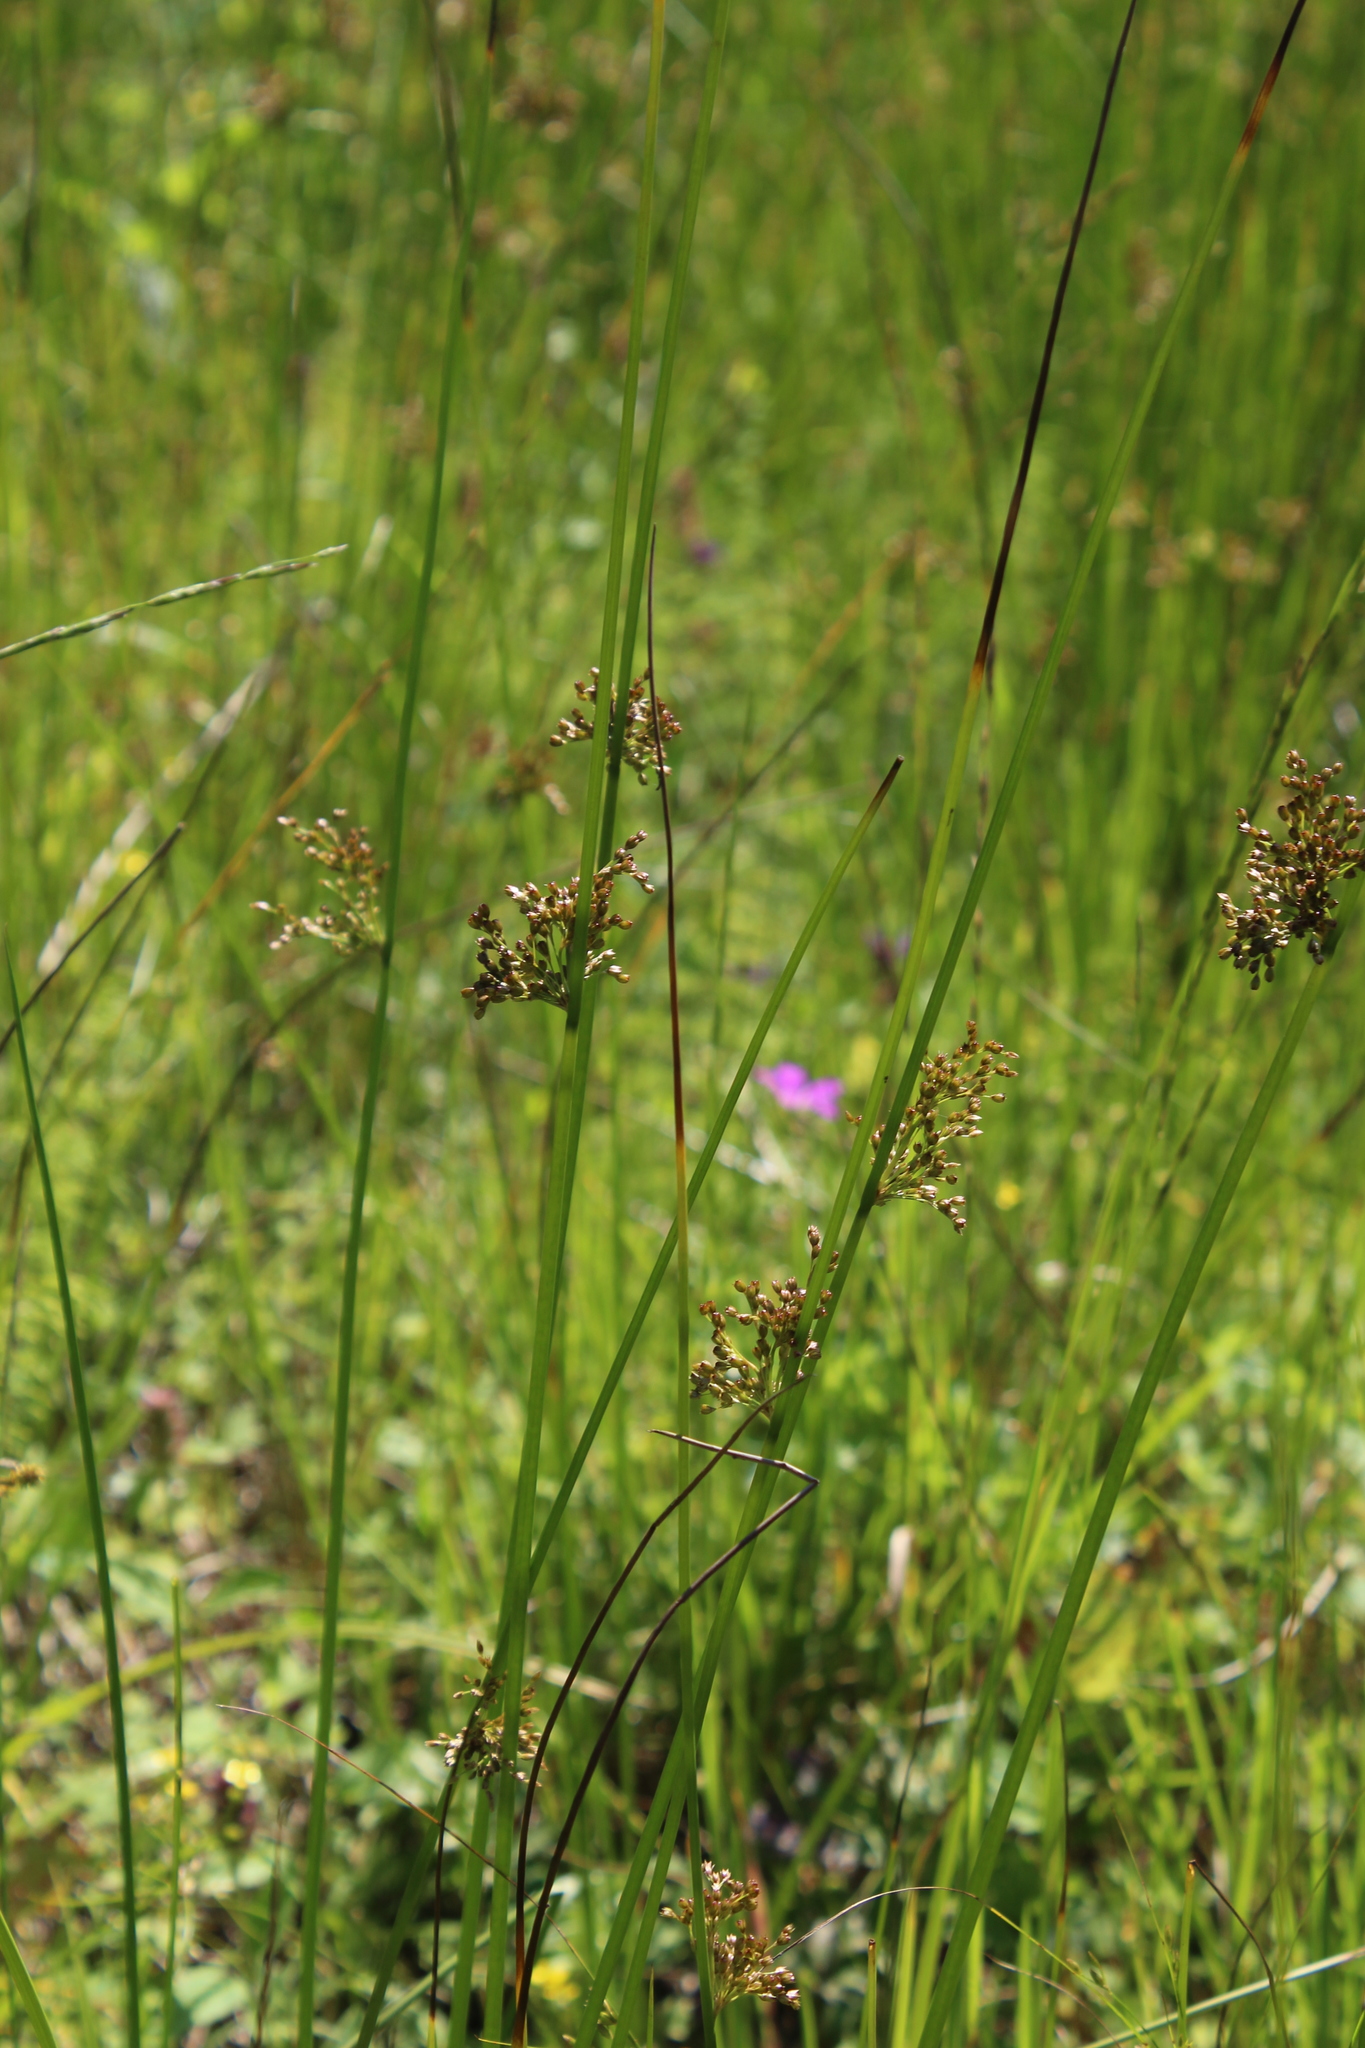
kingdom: Plantae
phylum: Tracheophyta
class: Liliopsida
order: Poales
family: Juncaceae
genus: Juncus
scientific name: Juncus effusus
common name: Soft rush
